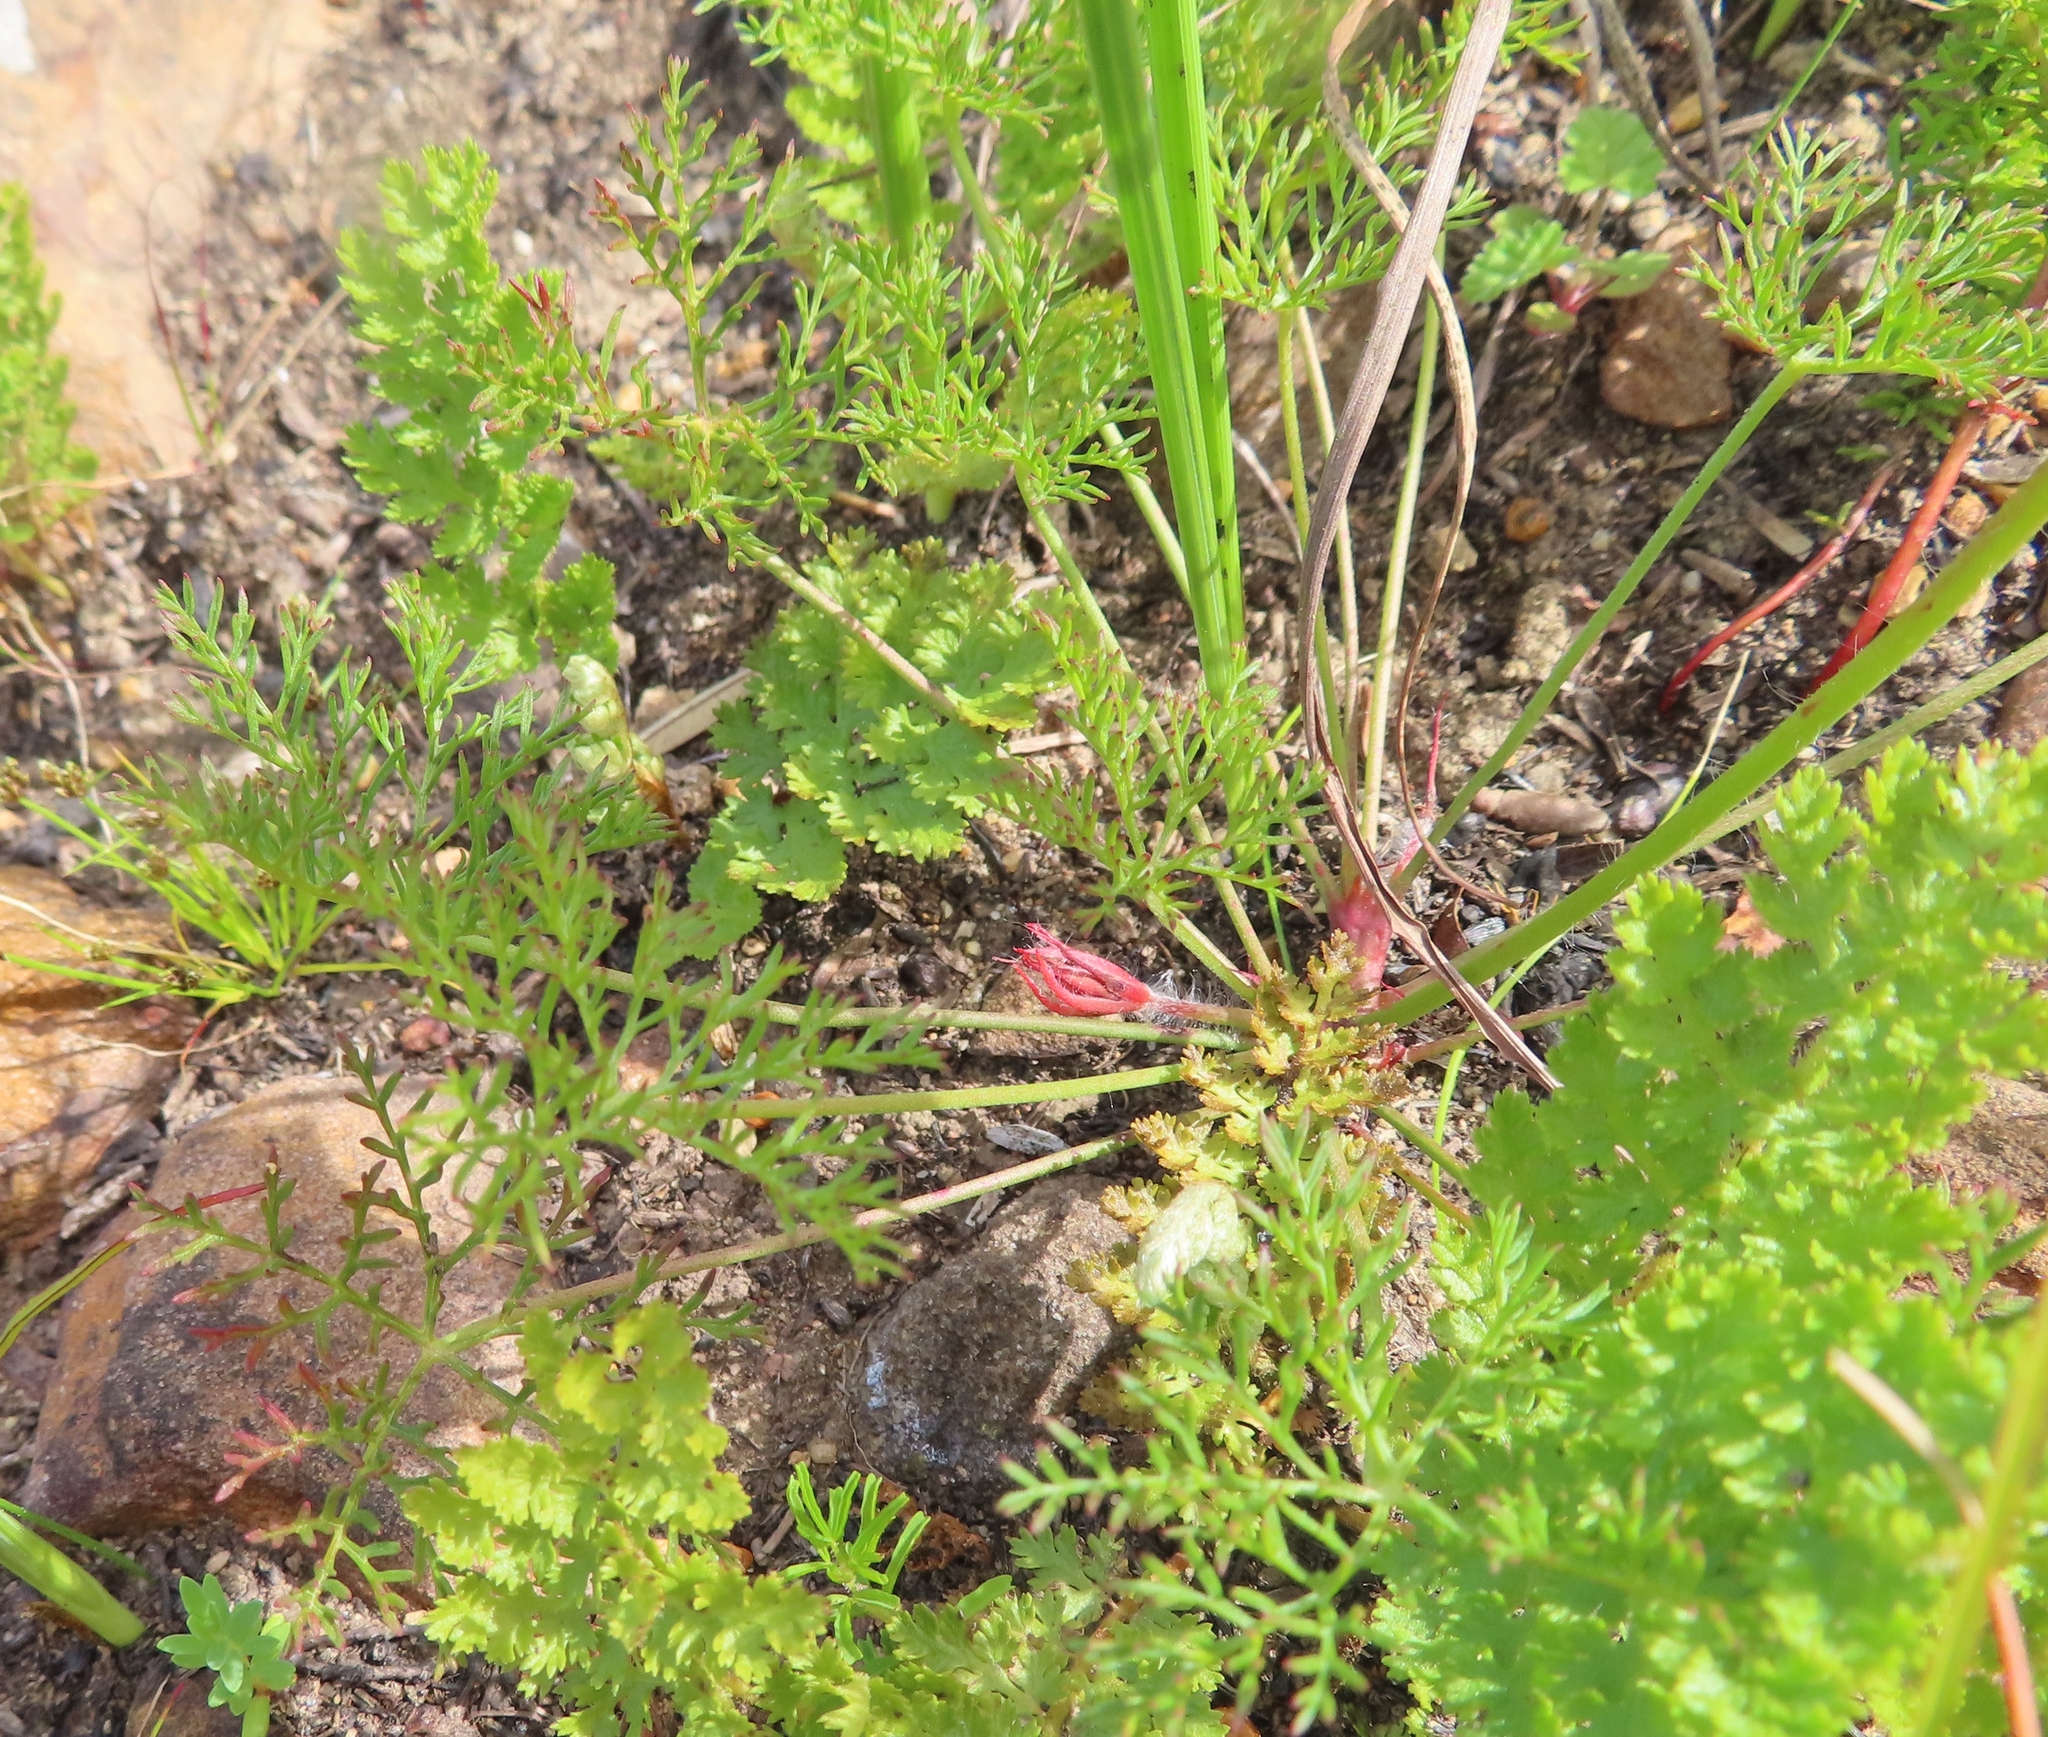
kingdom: Plantae
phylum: Tracheophyta
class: Magnoliopsida
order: Geraniales
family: Geraniaceae
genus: Monsonia
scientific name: Monsonia speciosa
